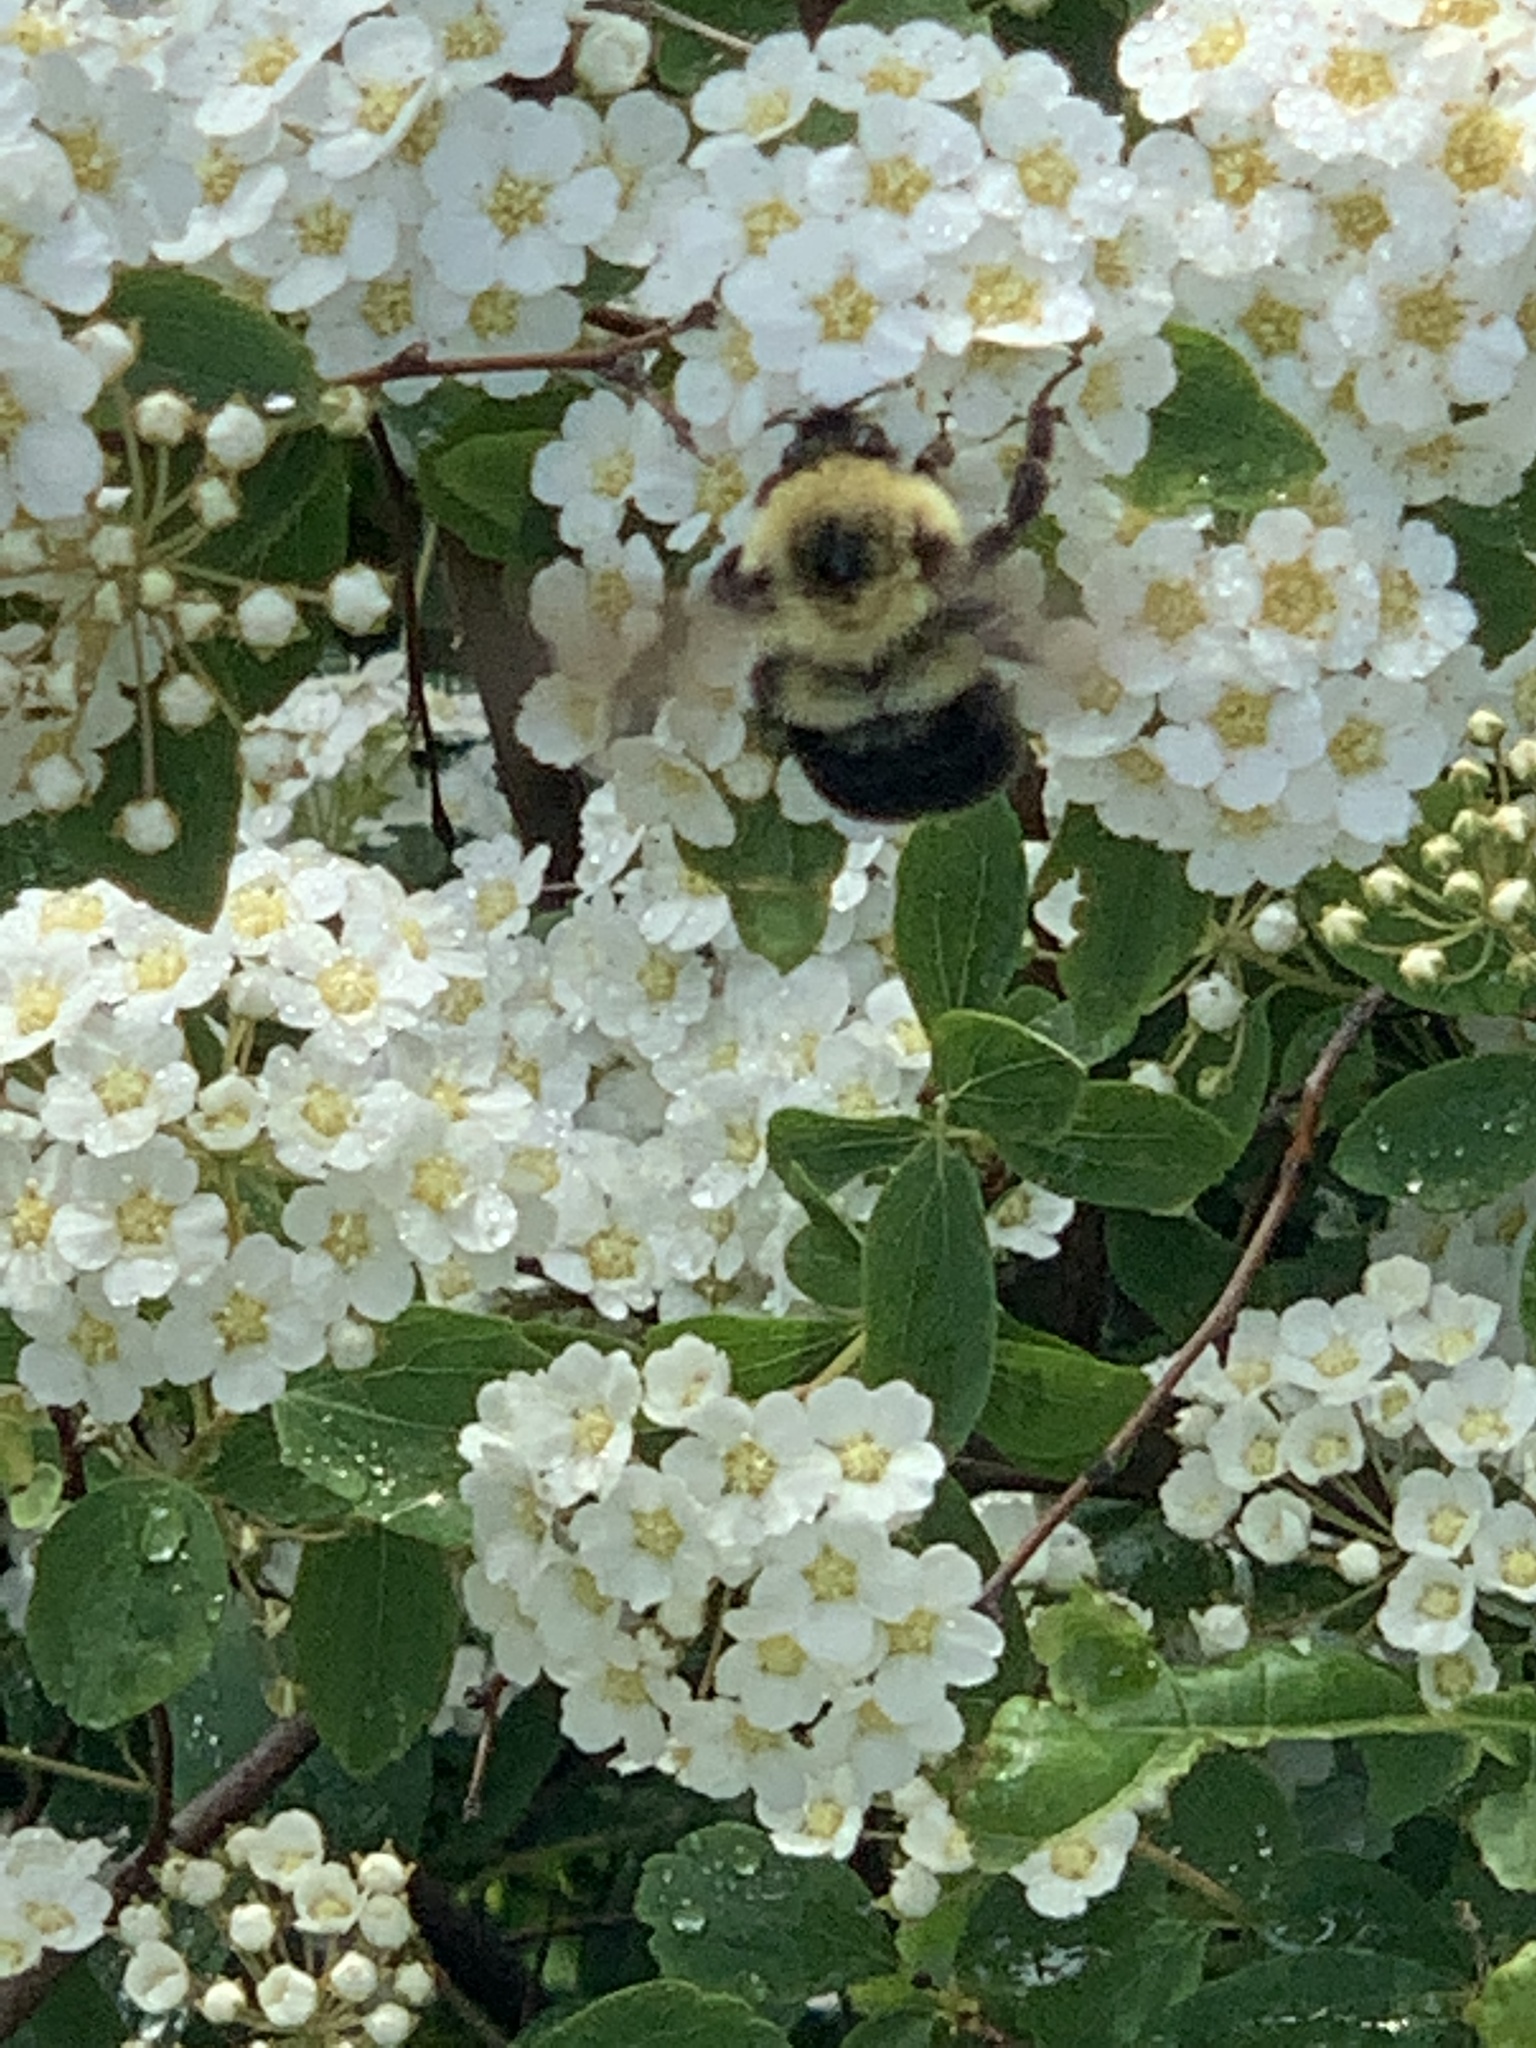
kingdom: Animalia
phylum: Arthropoda
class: Insecta
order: Hymenoptera
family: Apidae
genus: Bombus
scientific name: Bombus bimaculatus
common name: Two-spotted bumble bee
